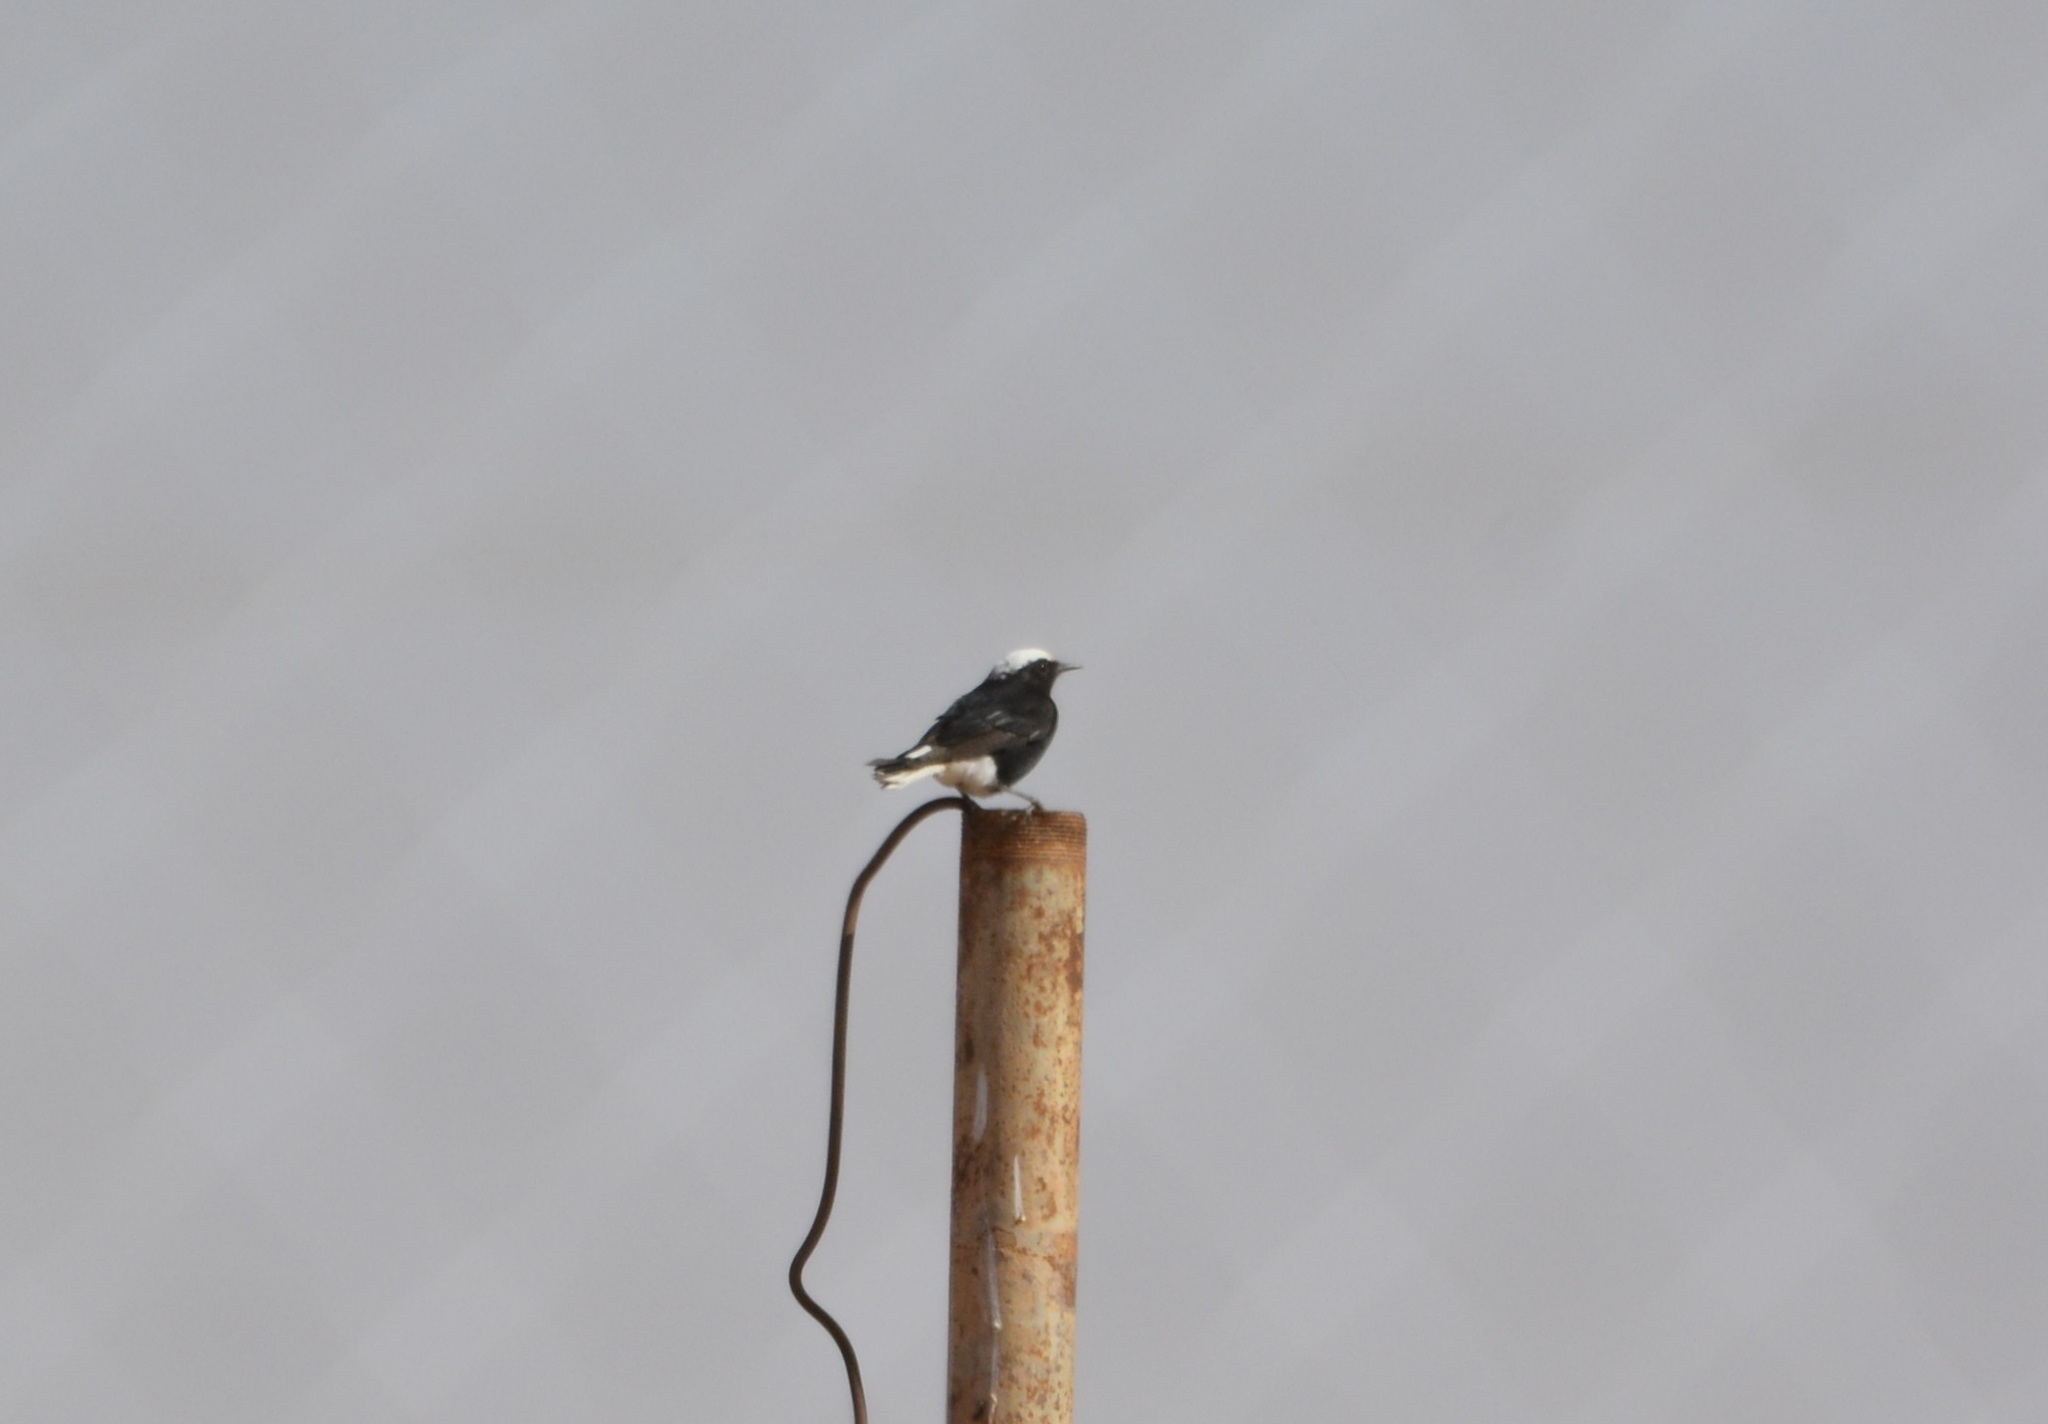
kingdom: Animalia
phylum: Chordata
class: Aves
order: Passeriformes
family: Muscicapidae
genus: Oenanthe
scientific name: Oenanthe leucopyga
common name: White-crowned wheatear
